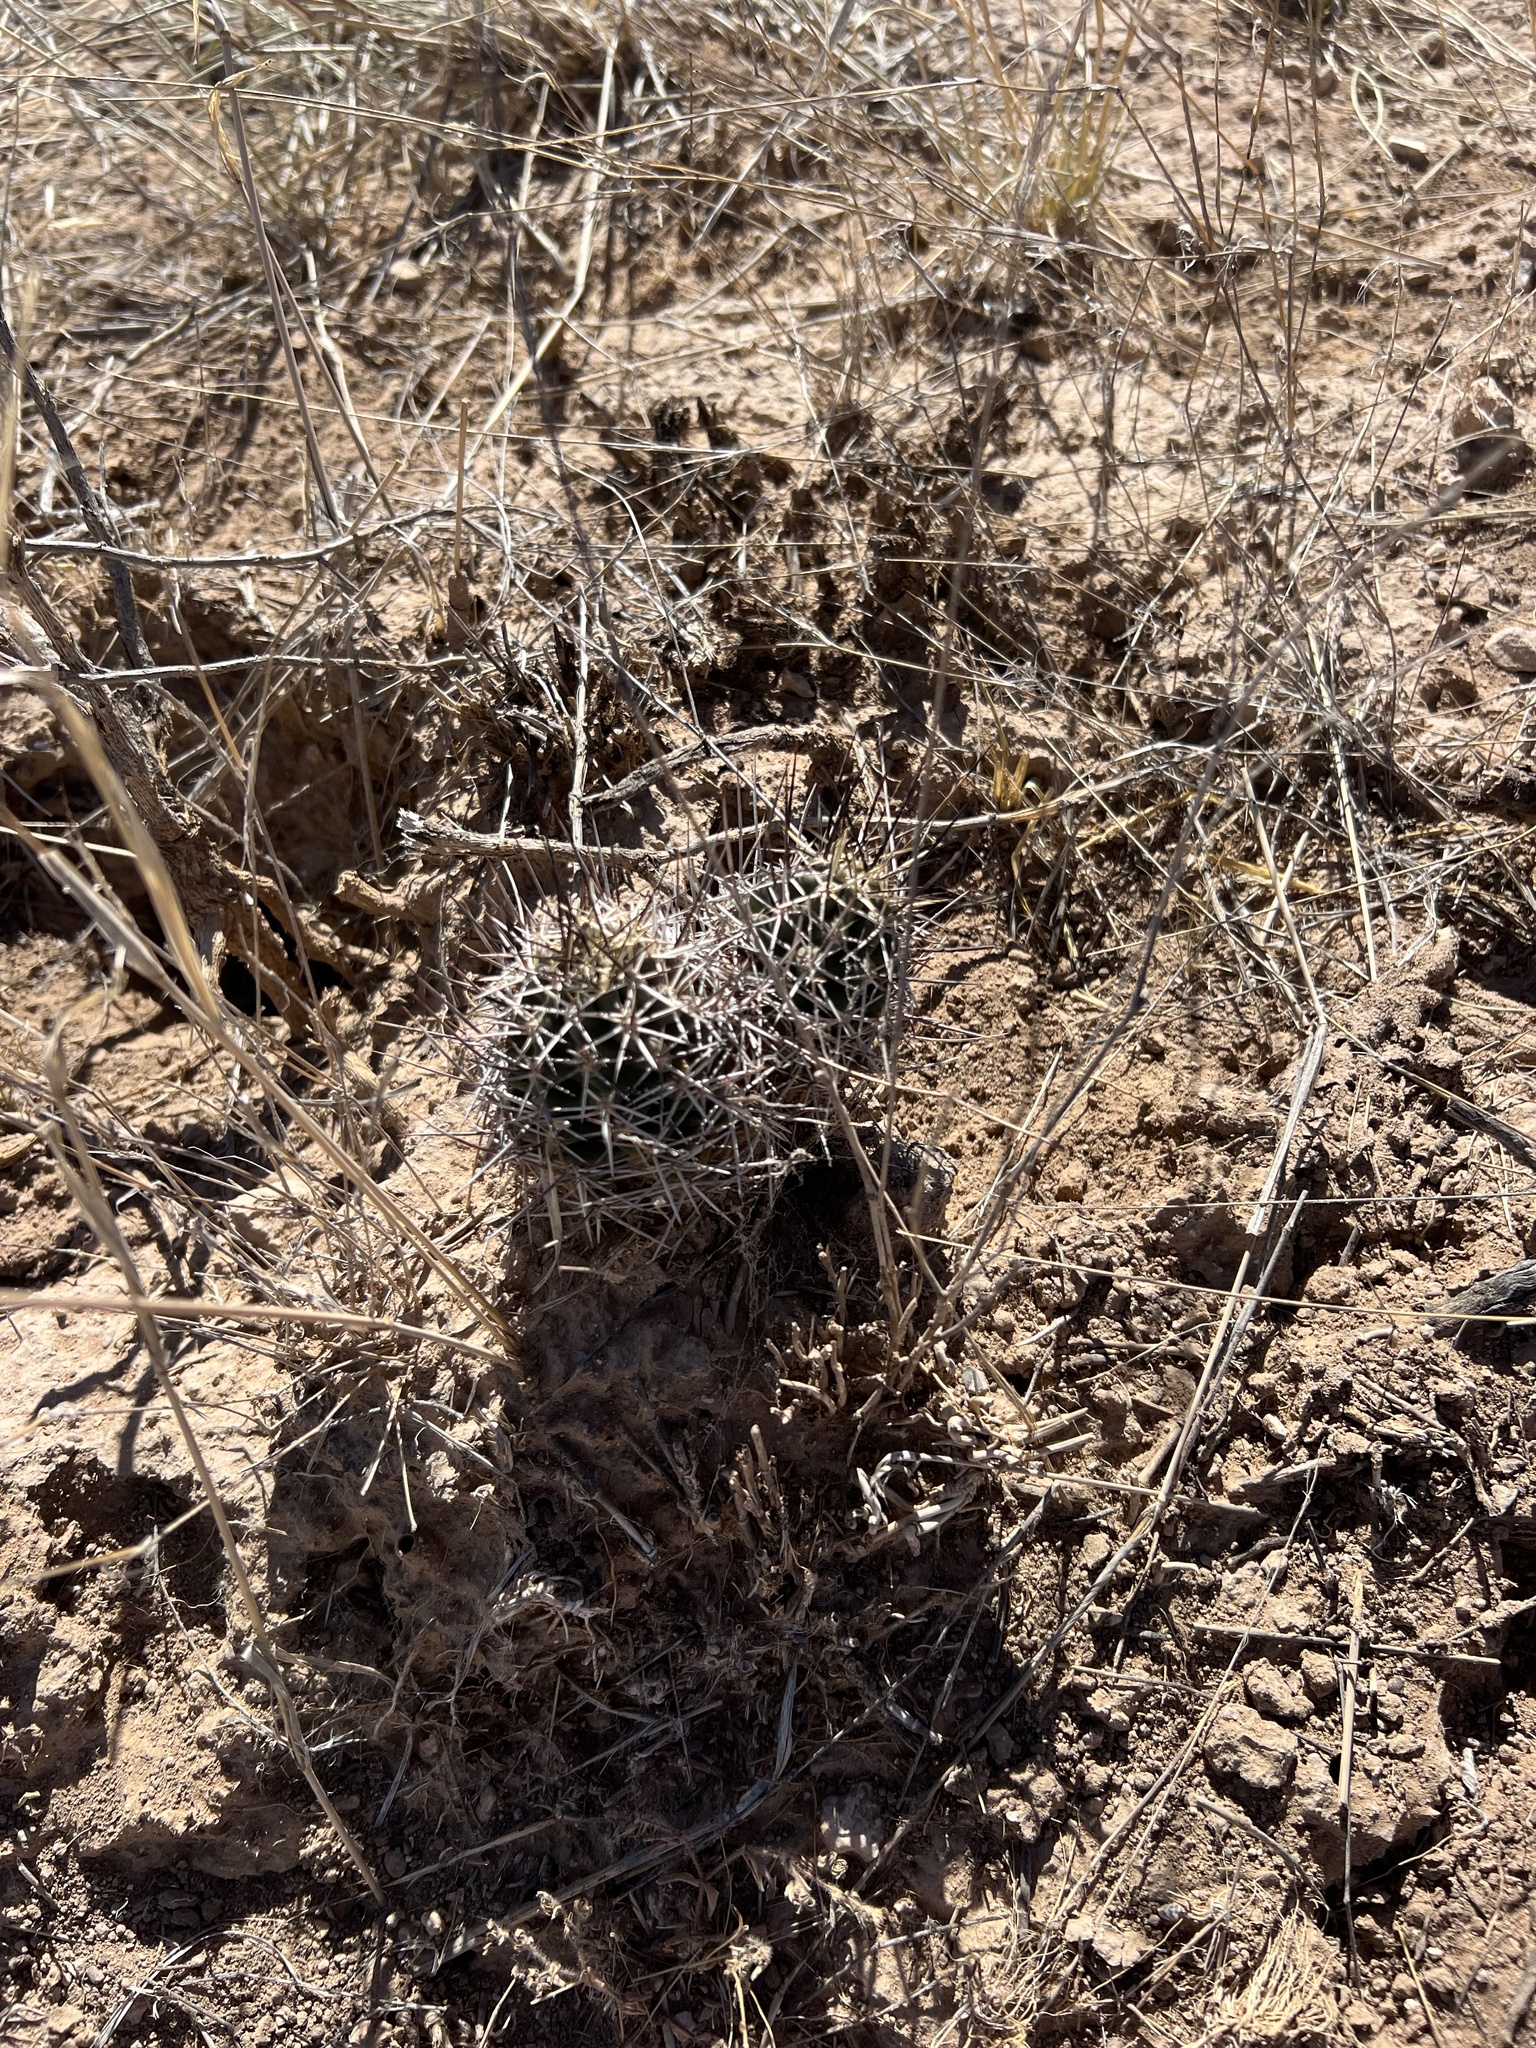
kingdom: Plantae
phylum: Tracheophyta
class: Magnoliopsida
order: Caryophyllales
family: Cactaceae
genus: Echinocereus
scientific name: Echinocereus fendleri
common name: Fendler's hedgehog cactus
